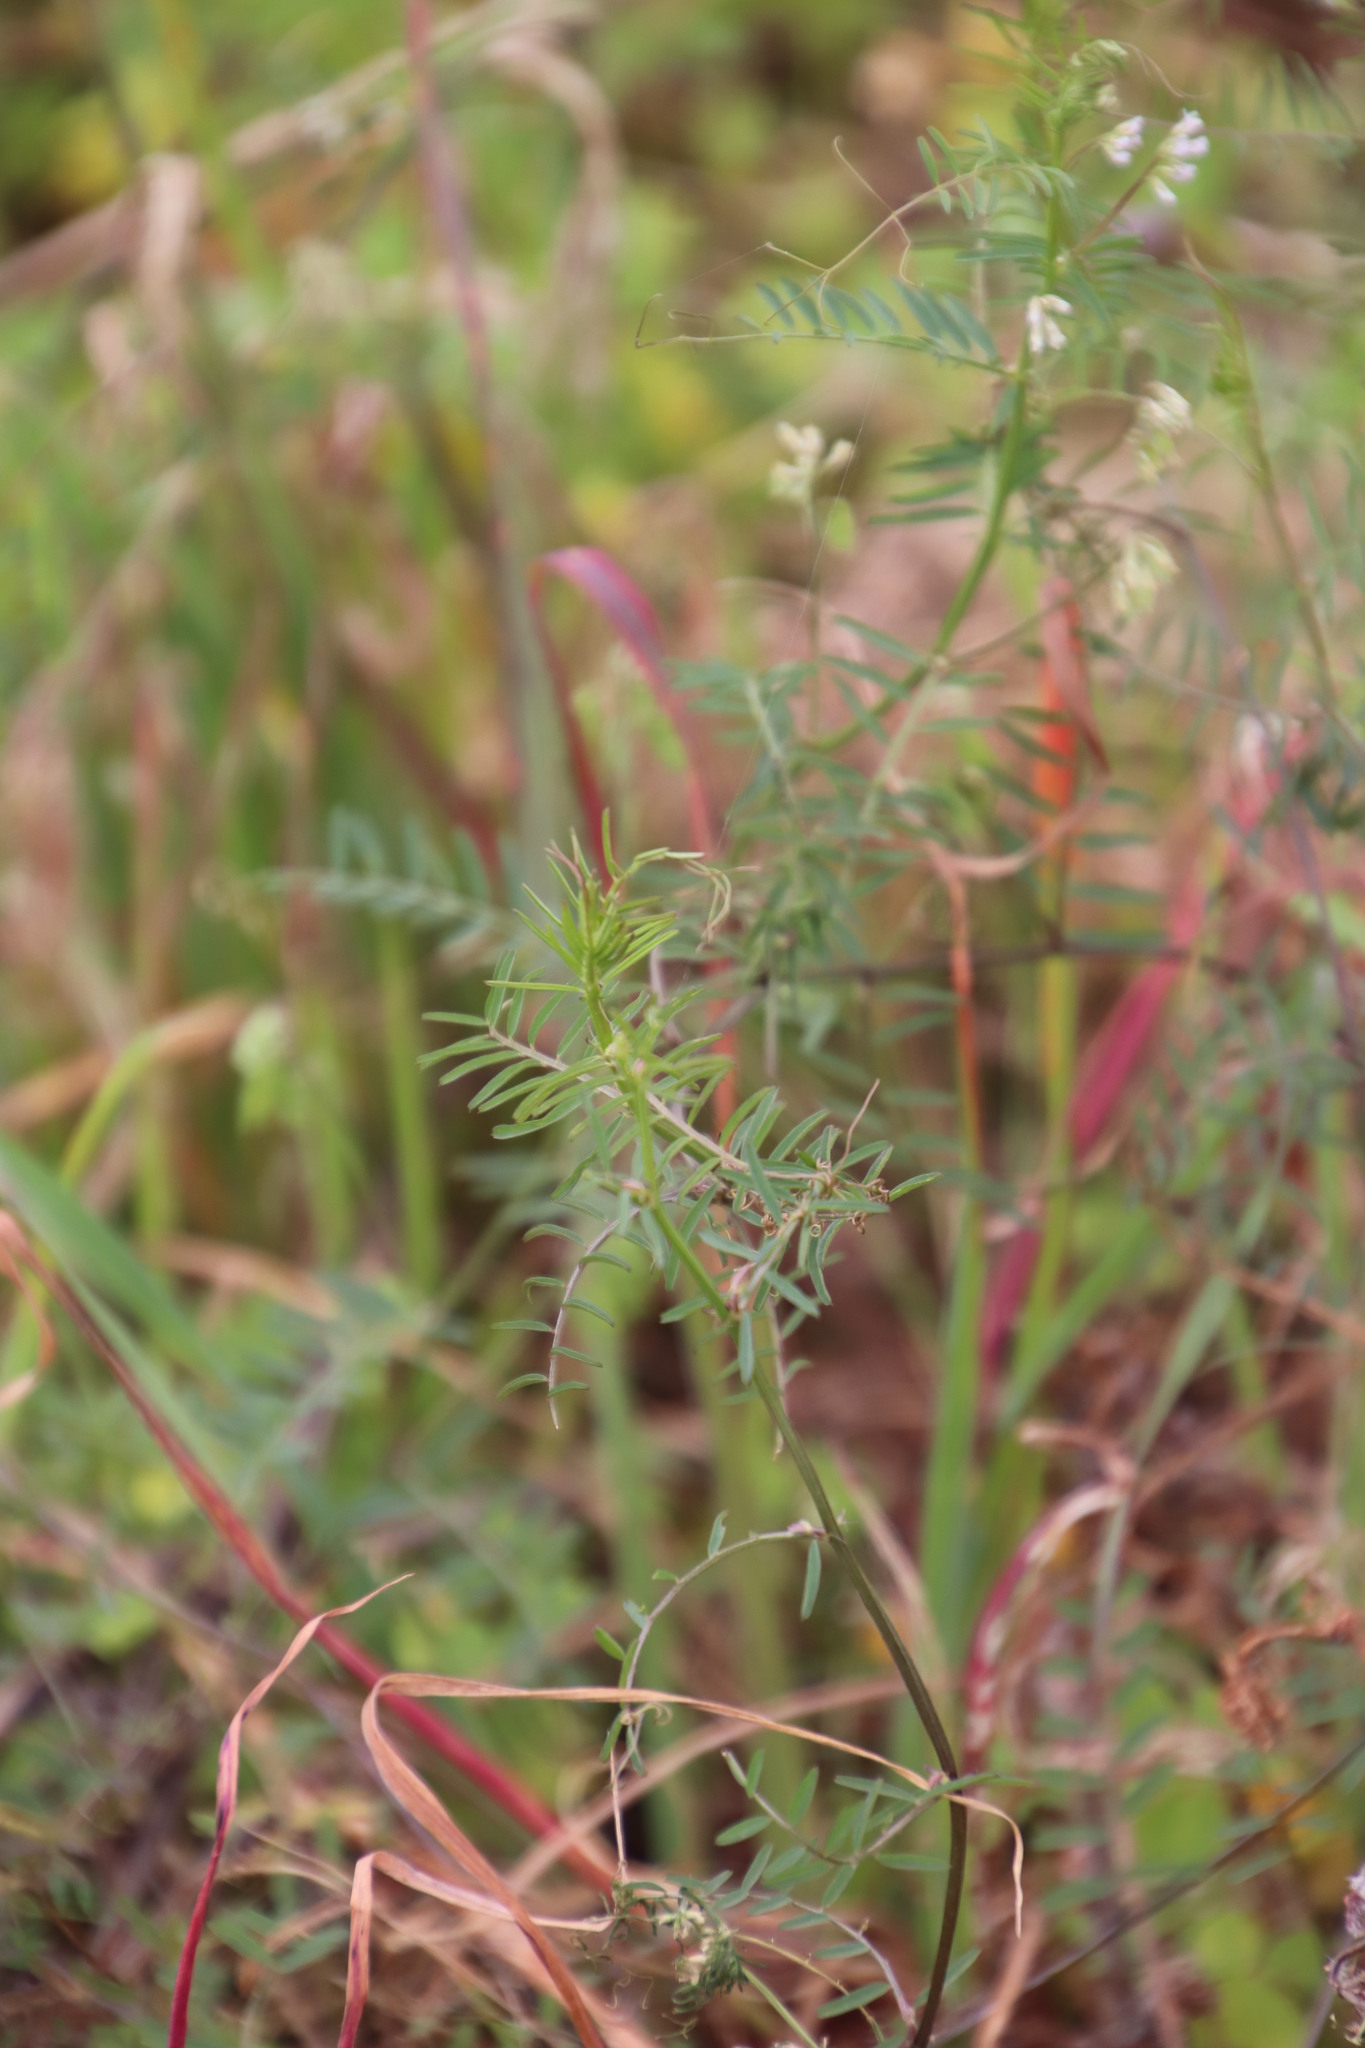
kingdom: Plantae
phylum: Tracheophyta
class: Magnoliopsida
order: Fabales
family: Fabaceae
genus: Vicia
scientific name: Vicia hirsuta
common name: Tiny vetch
